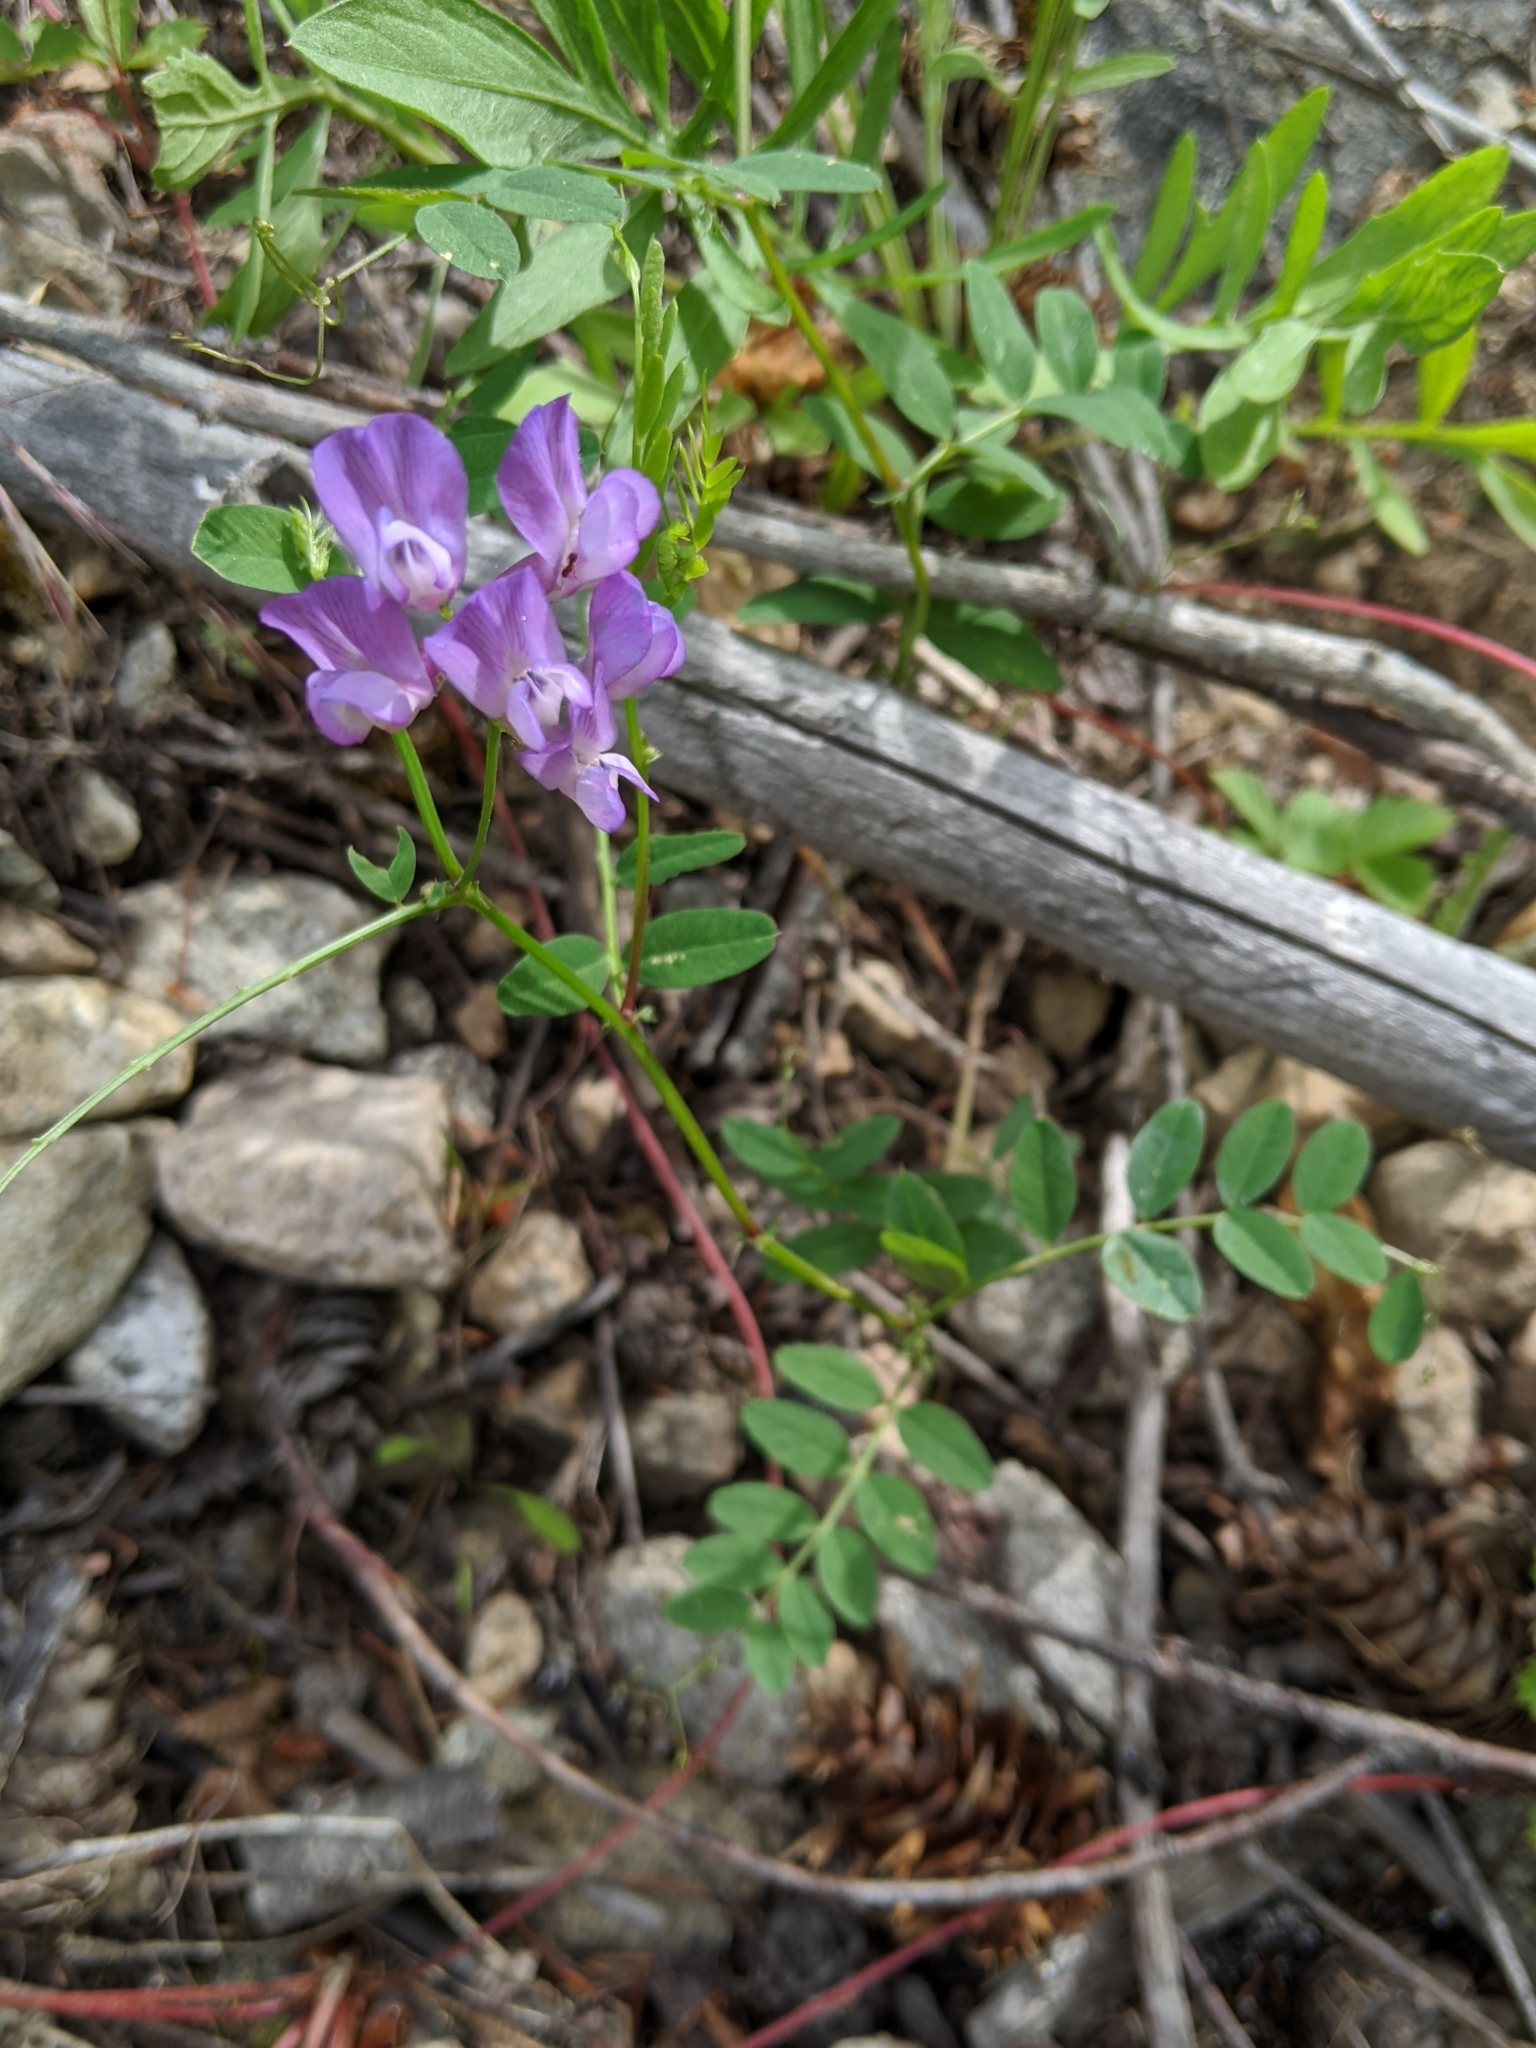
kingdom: Plantae
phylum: Tracheophyta
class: Magnoliopsida
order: Fabales
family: Fabaceae
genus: Vicia
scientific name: Vicia americana
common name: American vetch
